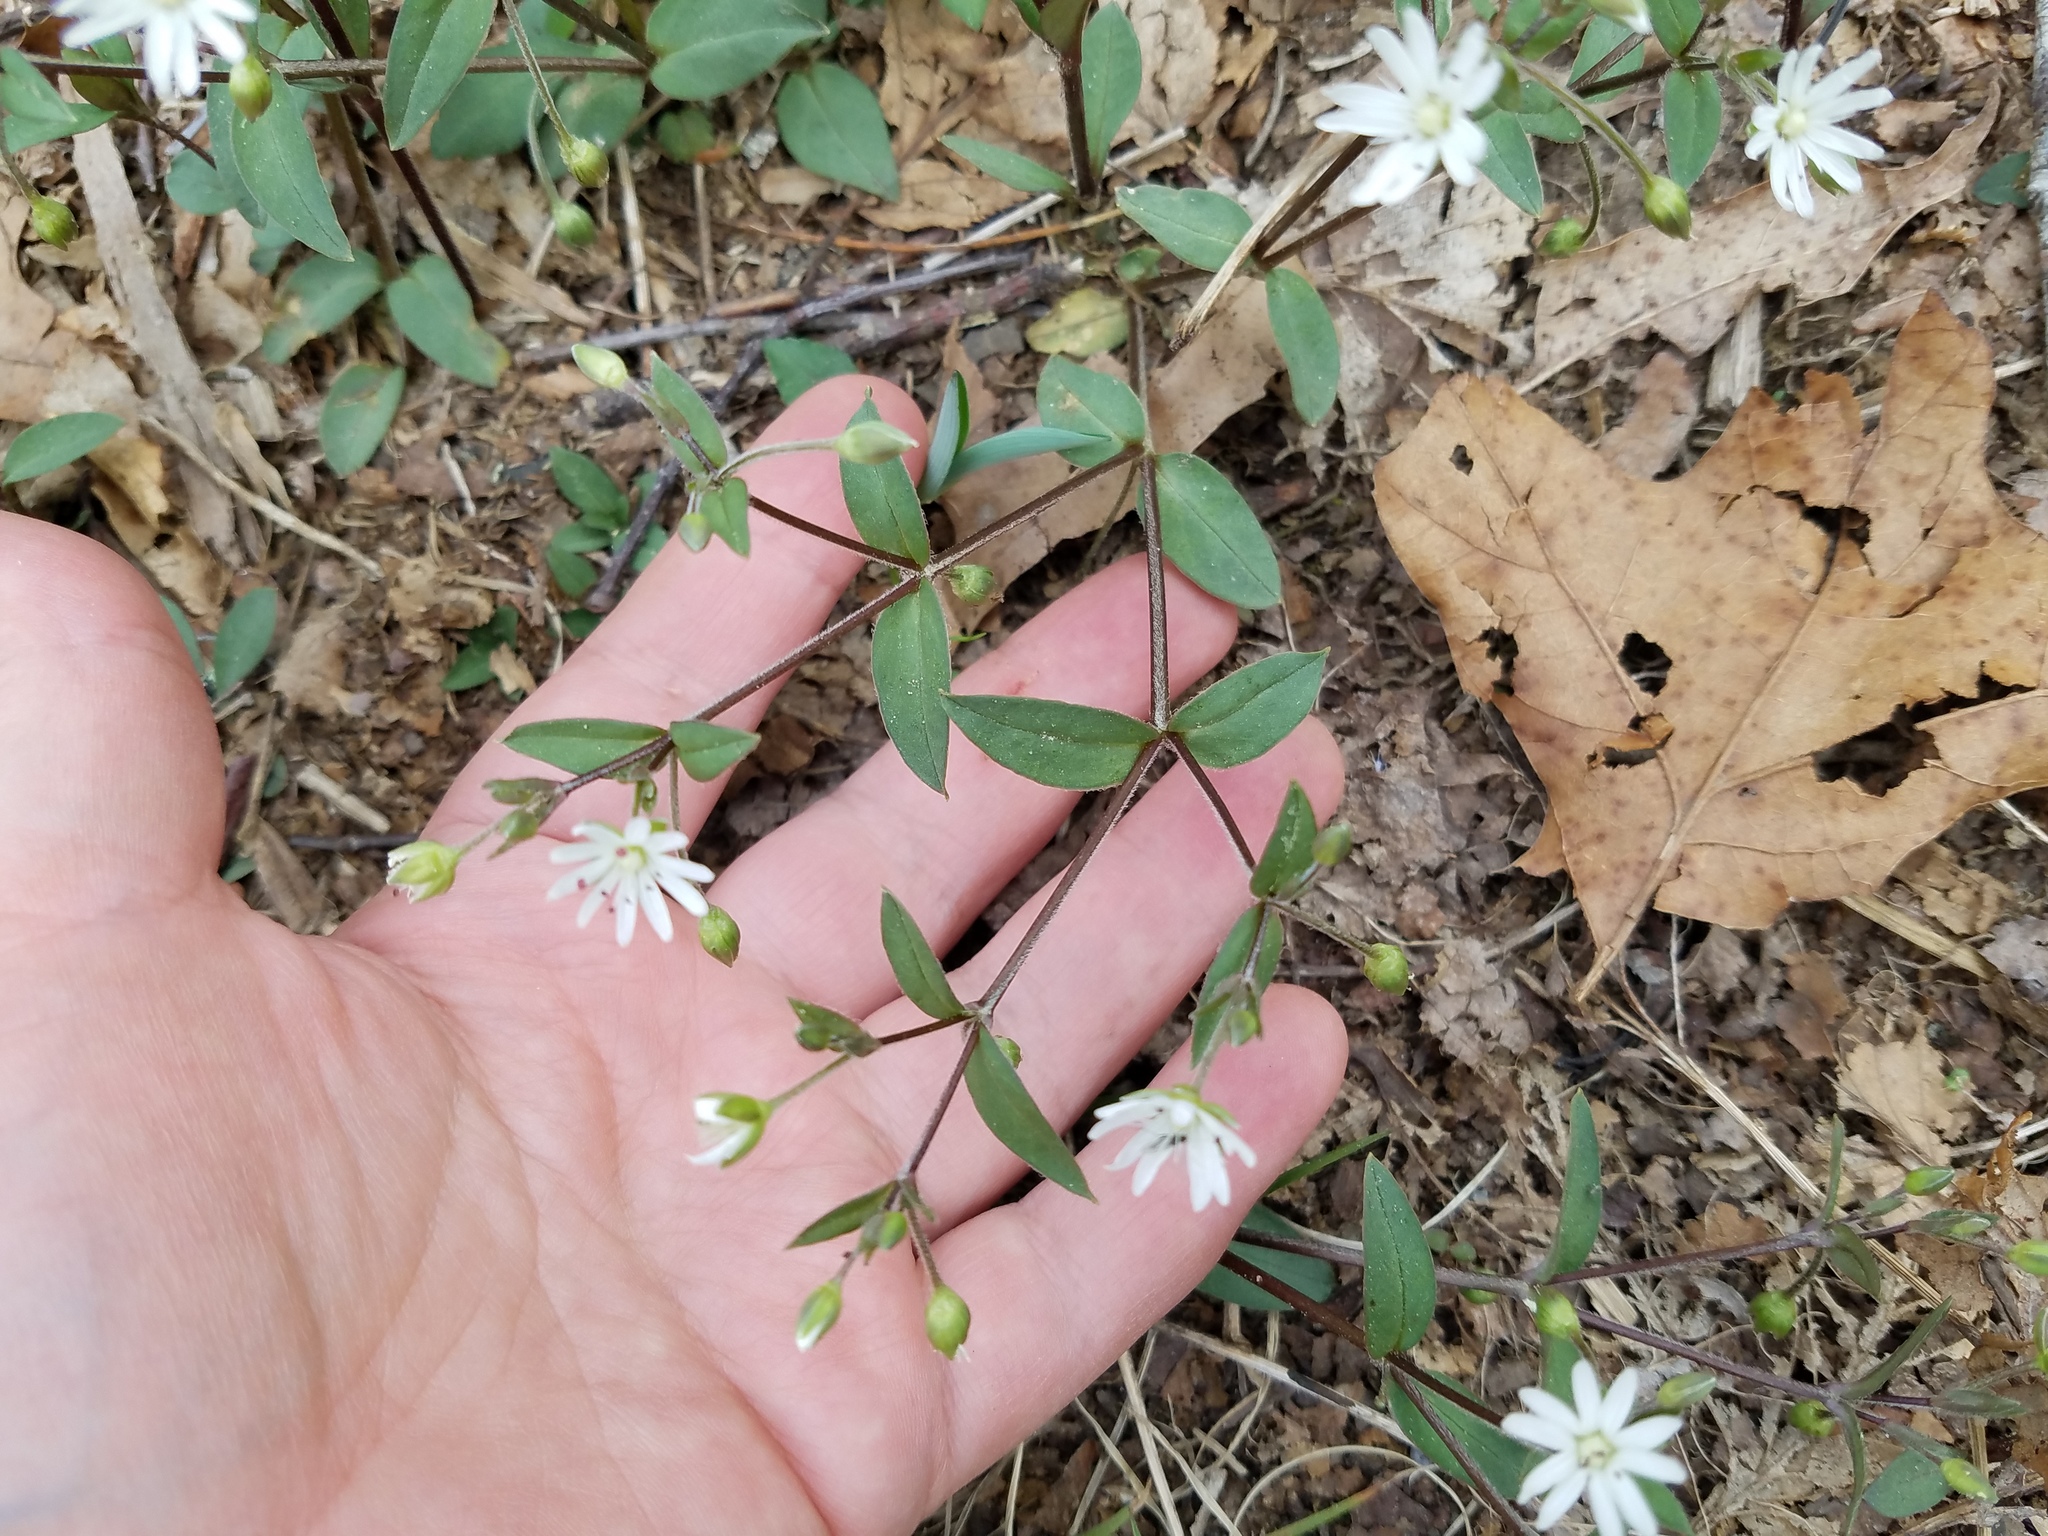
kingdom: Plantae
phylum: Tracheophyta
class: Magnoliopsida
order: Caryophyllales
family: Caryophyllaceae
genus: Stellaria
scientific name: Stellaria pubera
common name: Star chickweed
